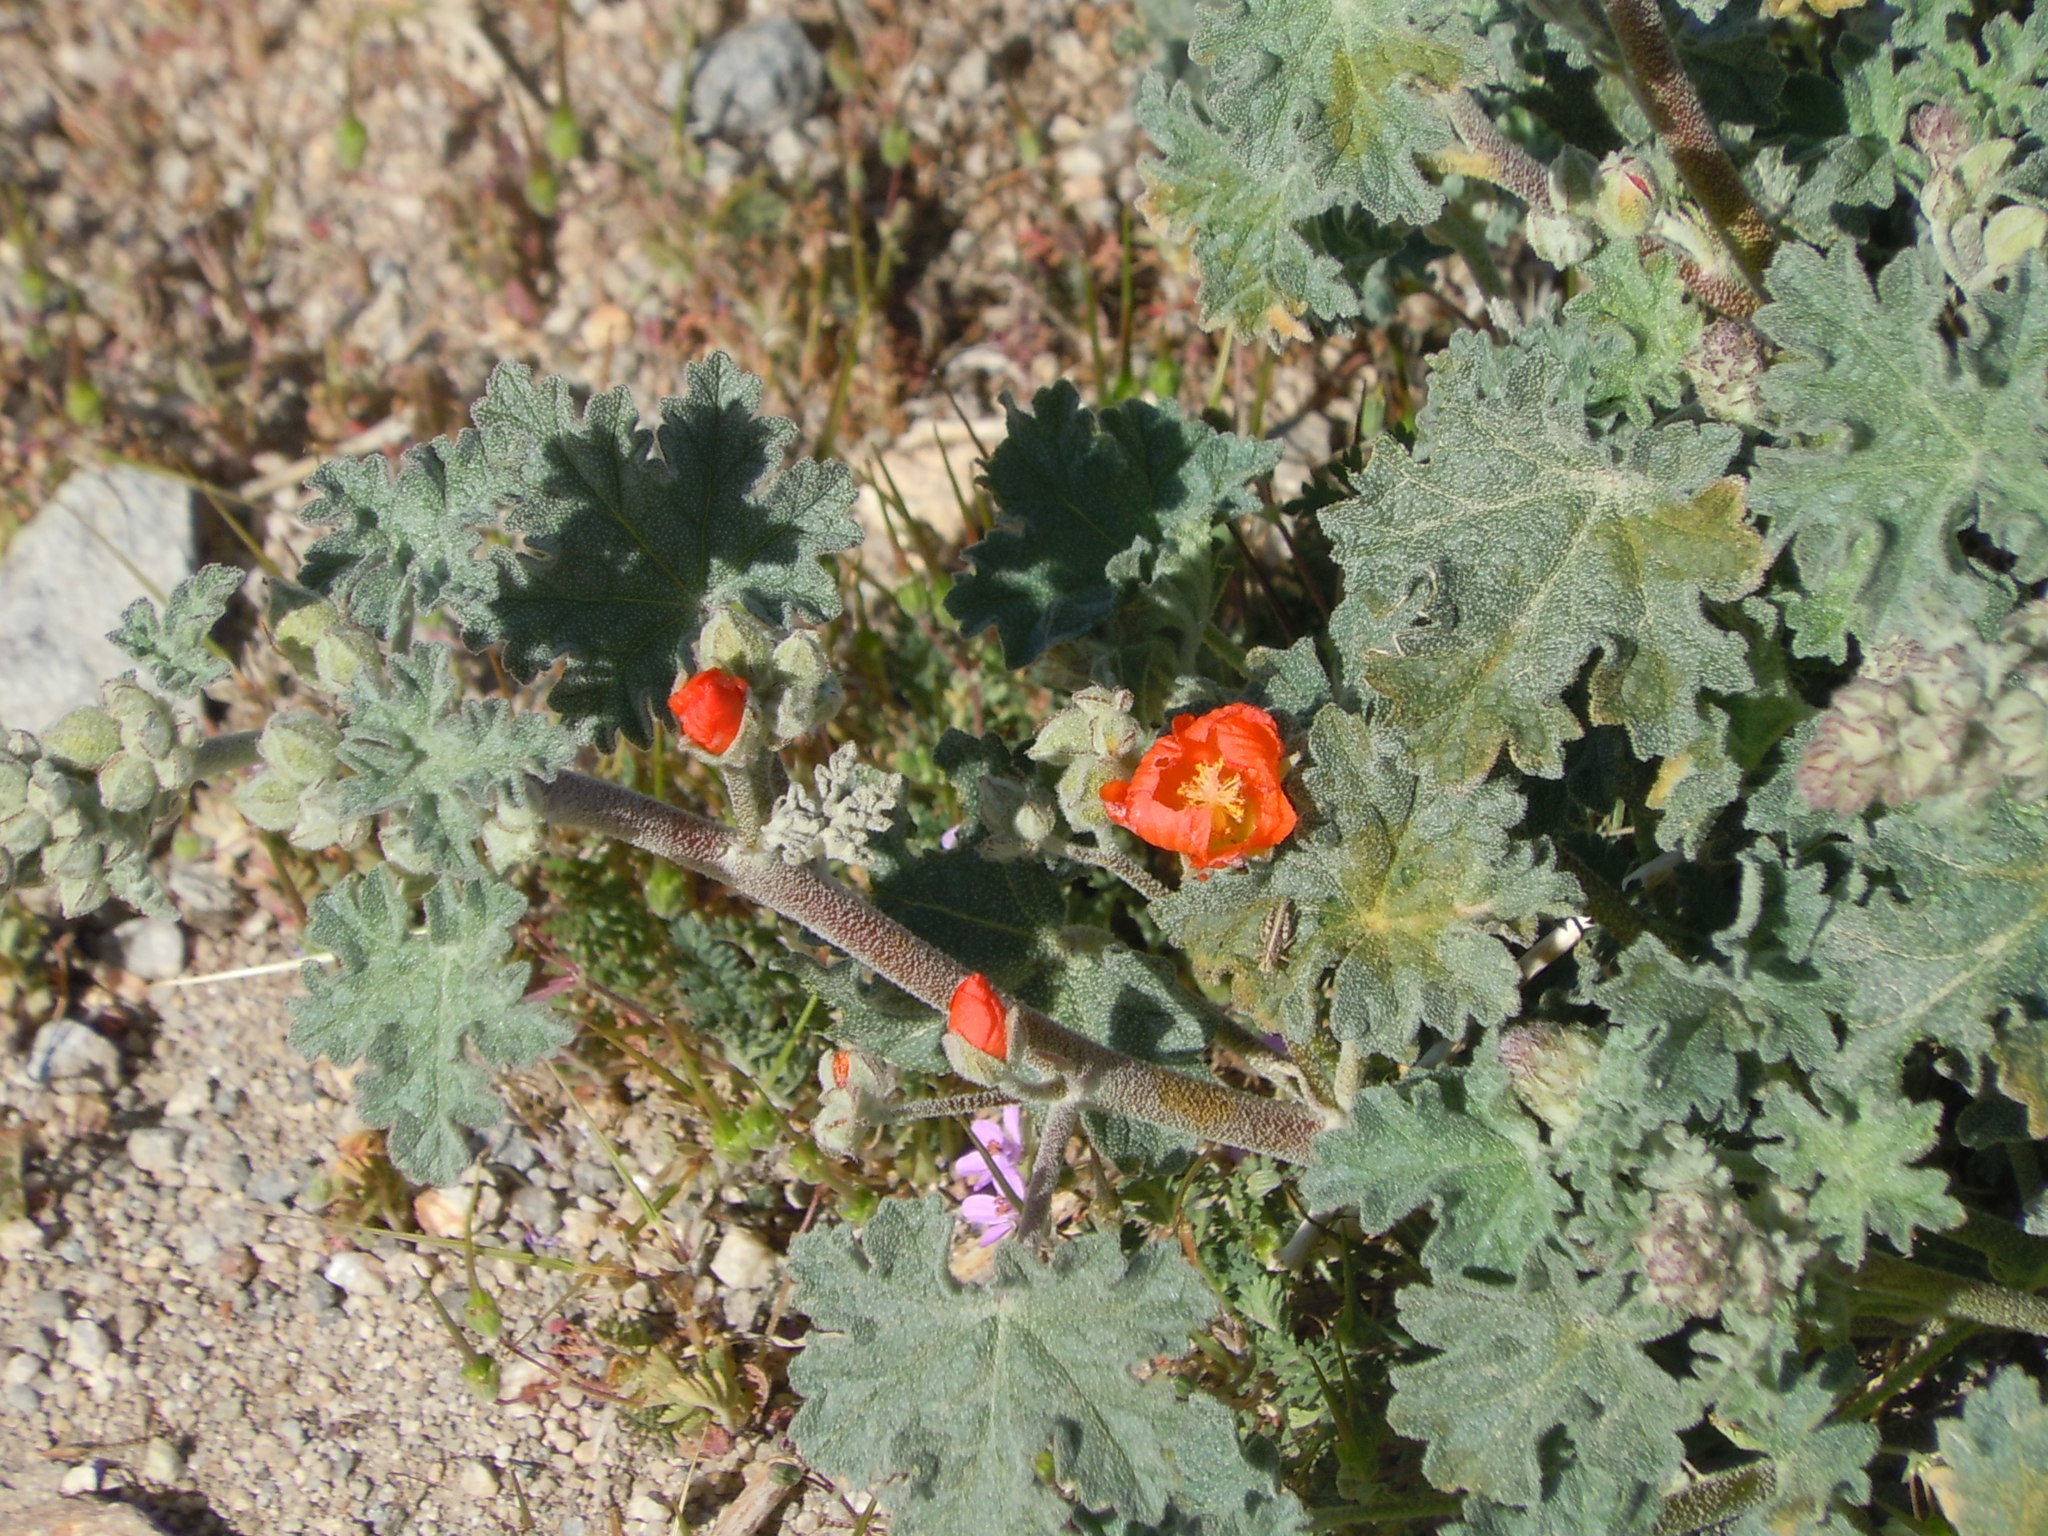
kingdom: Plantae
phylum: Tracheophyta
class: Magnoliopsida
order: Malvales
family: Malvaceae
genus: Sphaeralcea
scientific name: Sphaeralcea ambigua
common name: Apricot globe-mallow
